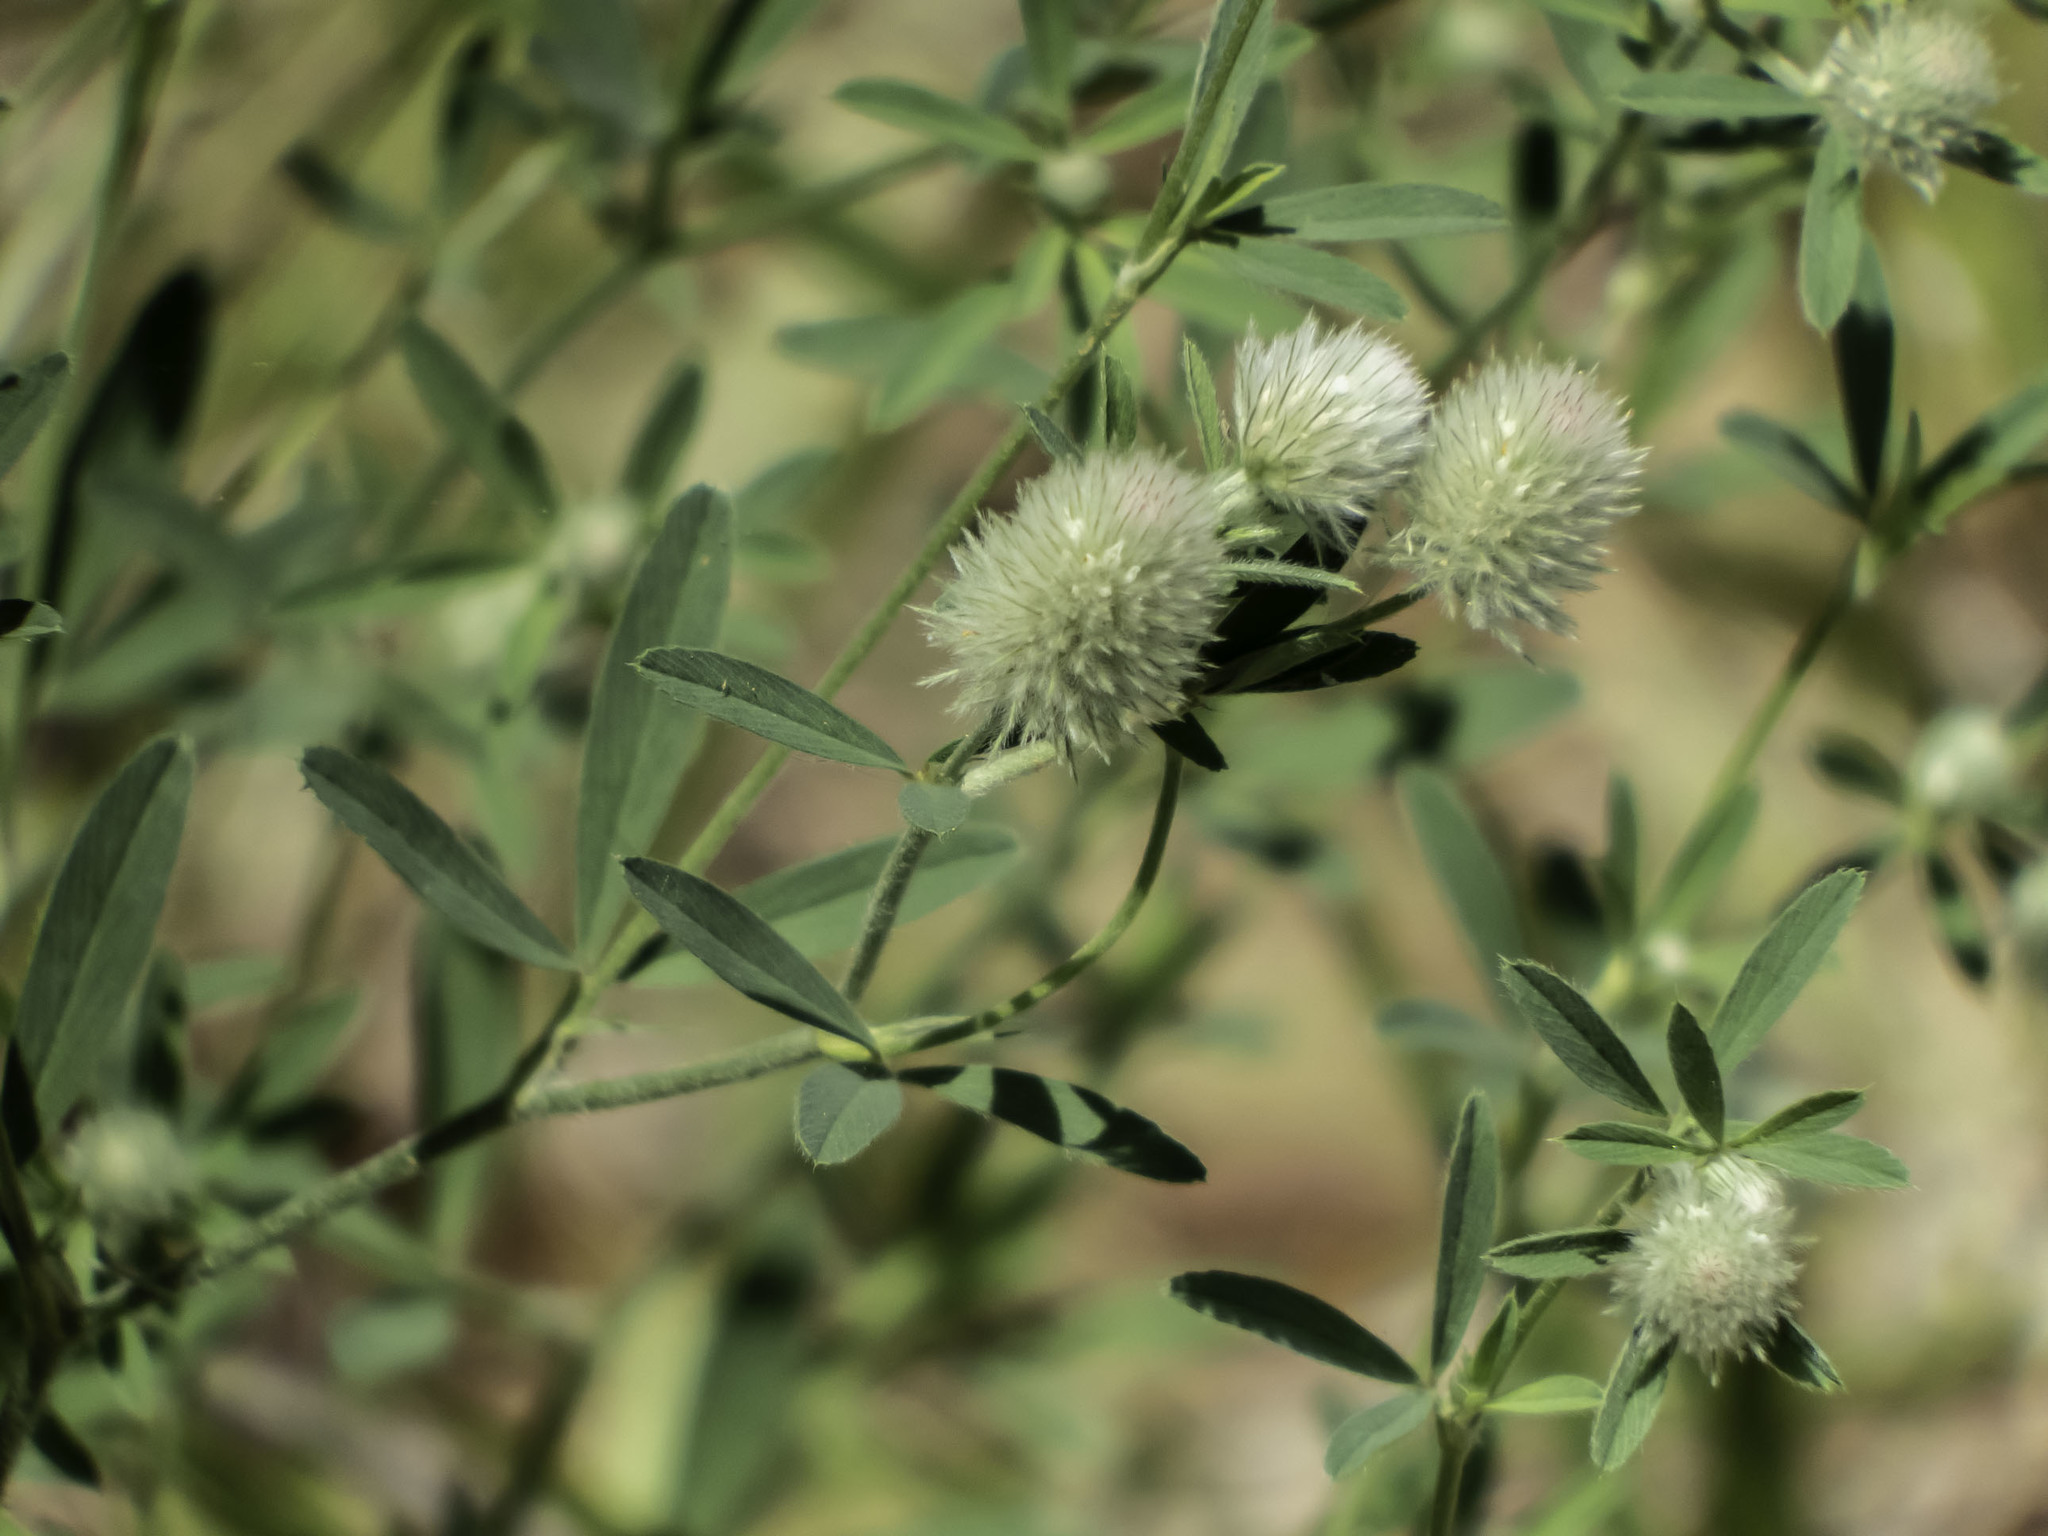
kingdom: Plantae
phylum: Tracheophyta
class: Magnoliopsida
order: Fabales
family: Fabaceae
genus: Trifolium
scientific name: Trifolium arvense
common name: Hare's-foot clover
